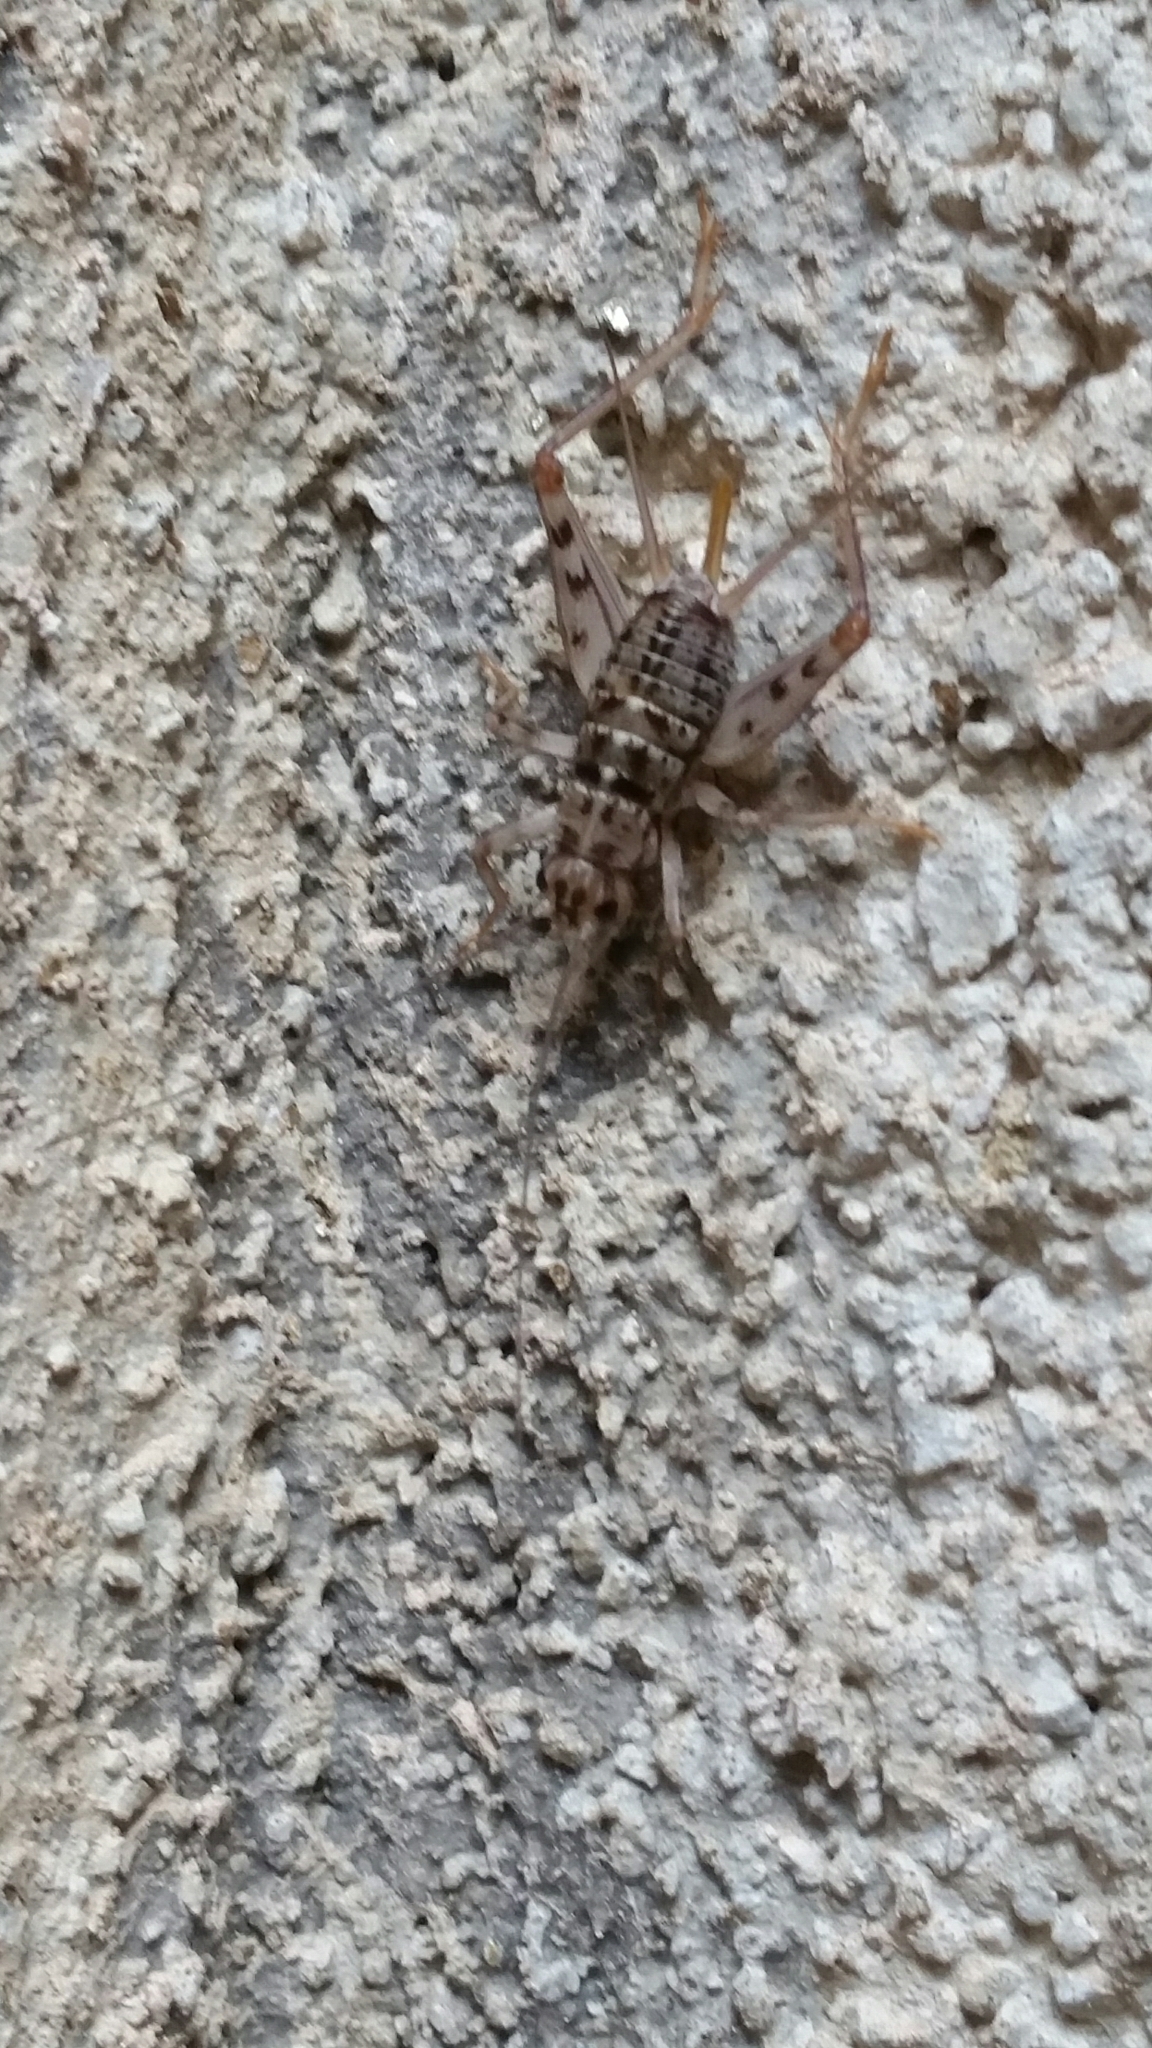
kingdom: Animalia
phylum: Arthropoda
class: Insecta
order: Orthoptera
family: Gryllidae
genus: Gryllomorpha
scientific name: Gryllomorpha dalmatina
